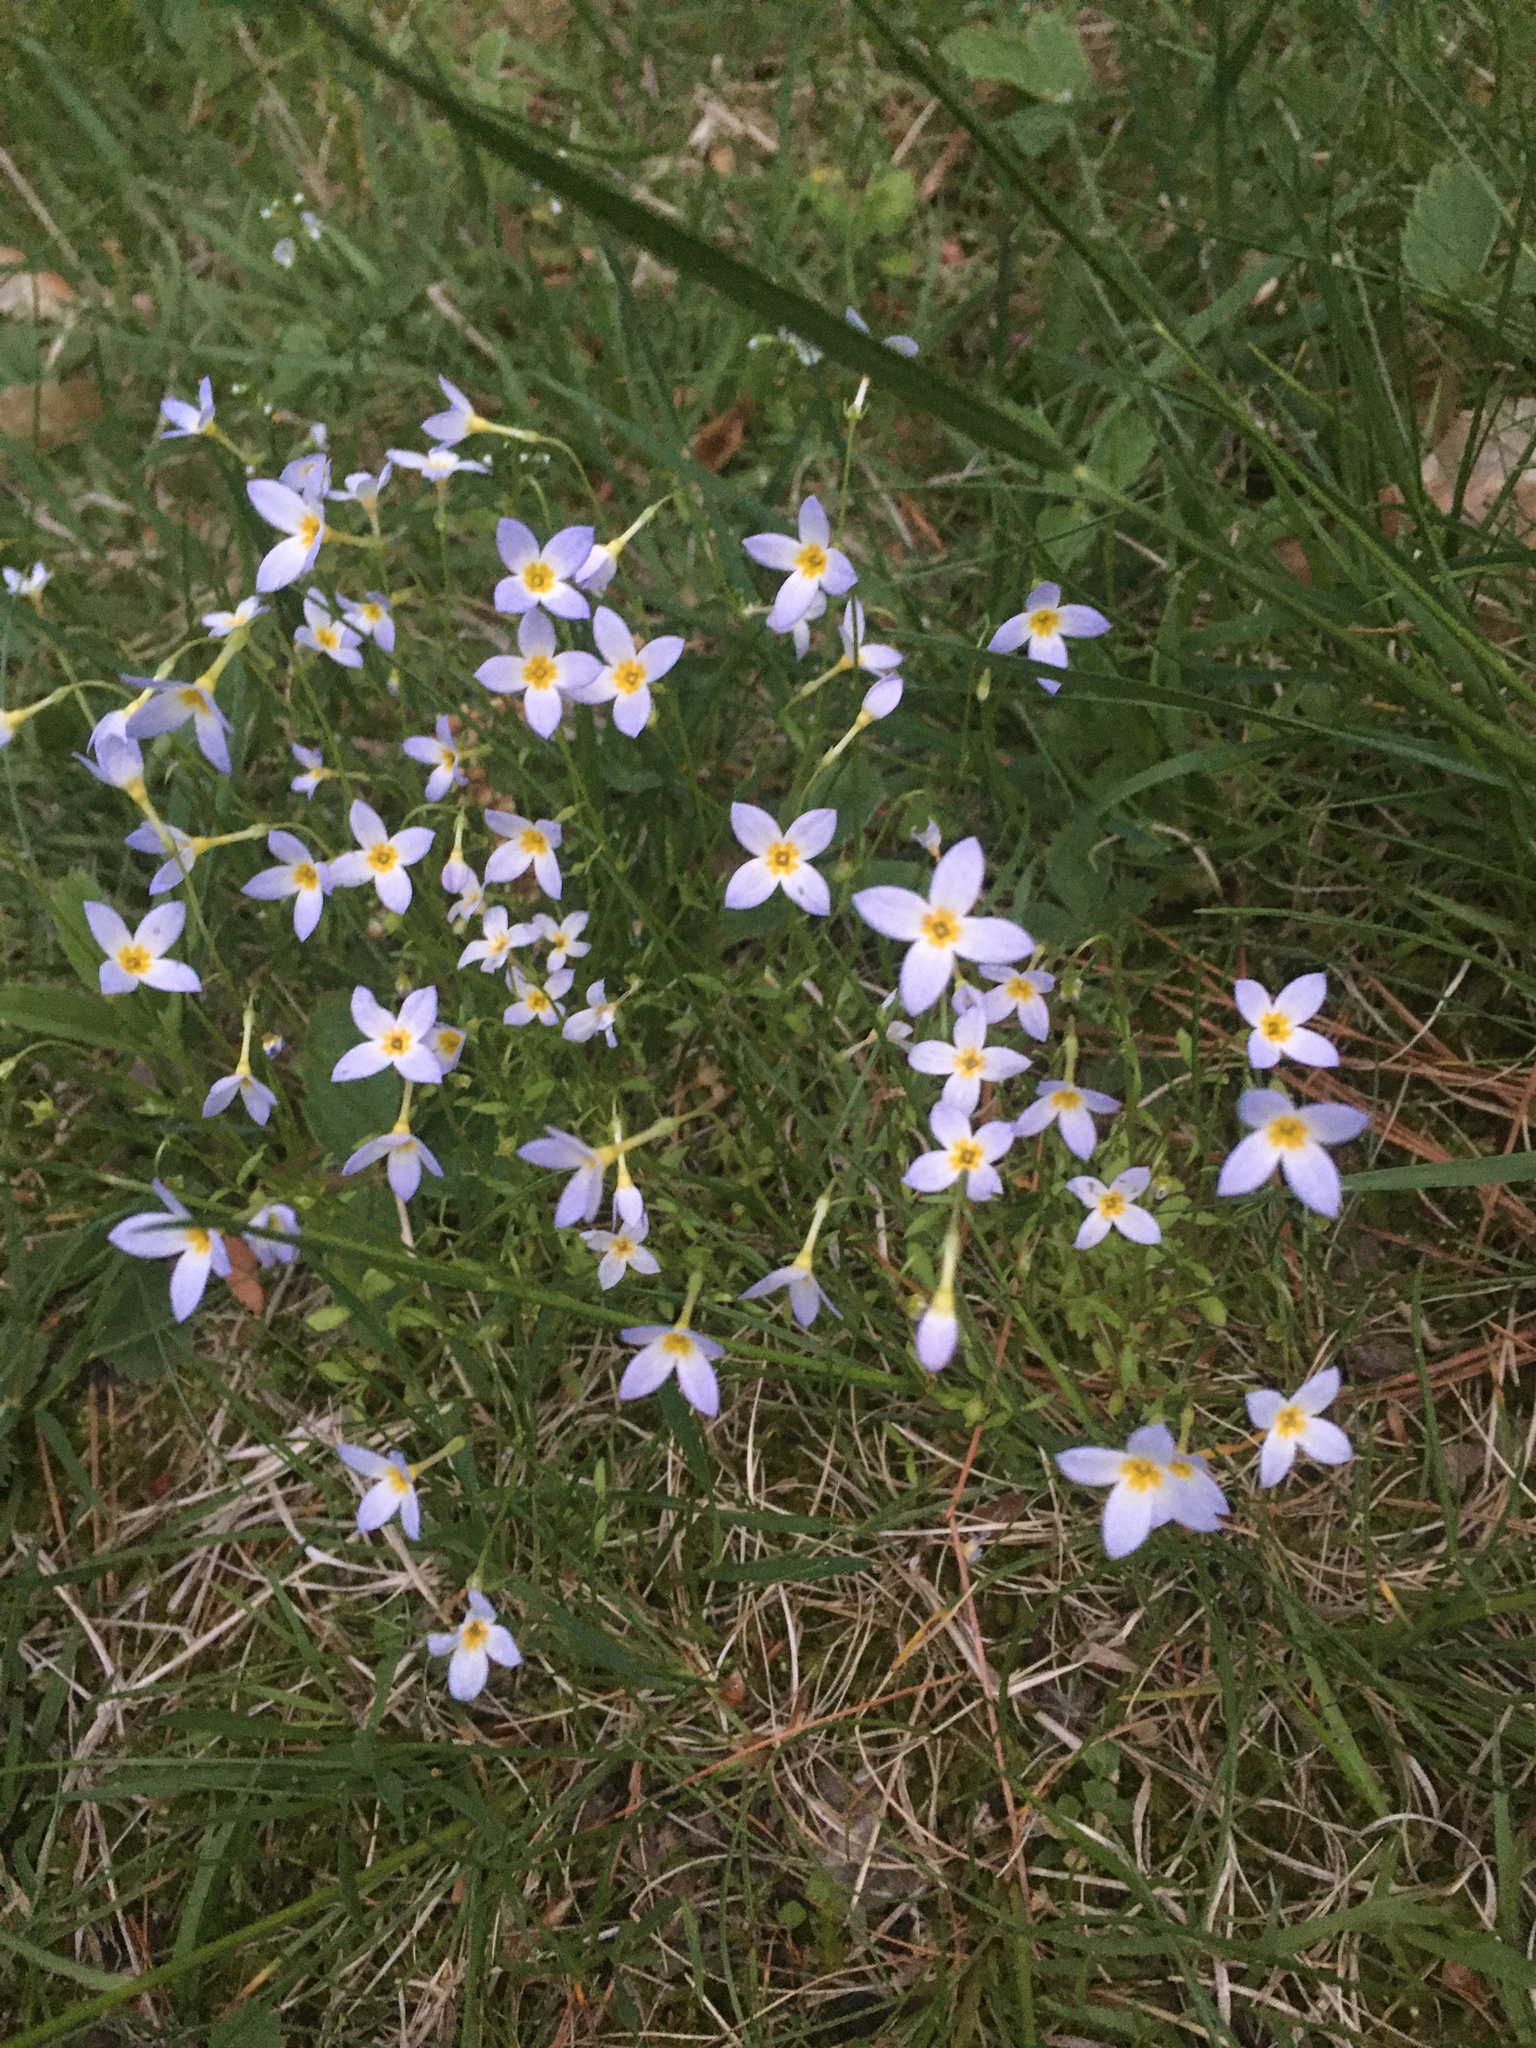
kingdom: Plantae
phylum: Tracheophyta
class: Magnoliopsida
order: Gentianales
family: Rubiaceae
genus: Houstonia
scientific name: Houstonia caerulea
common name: Bluets
